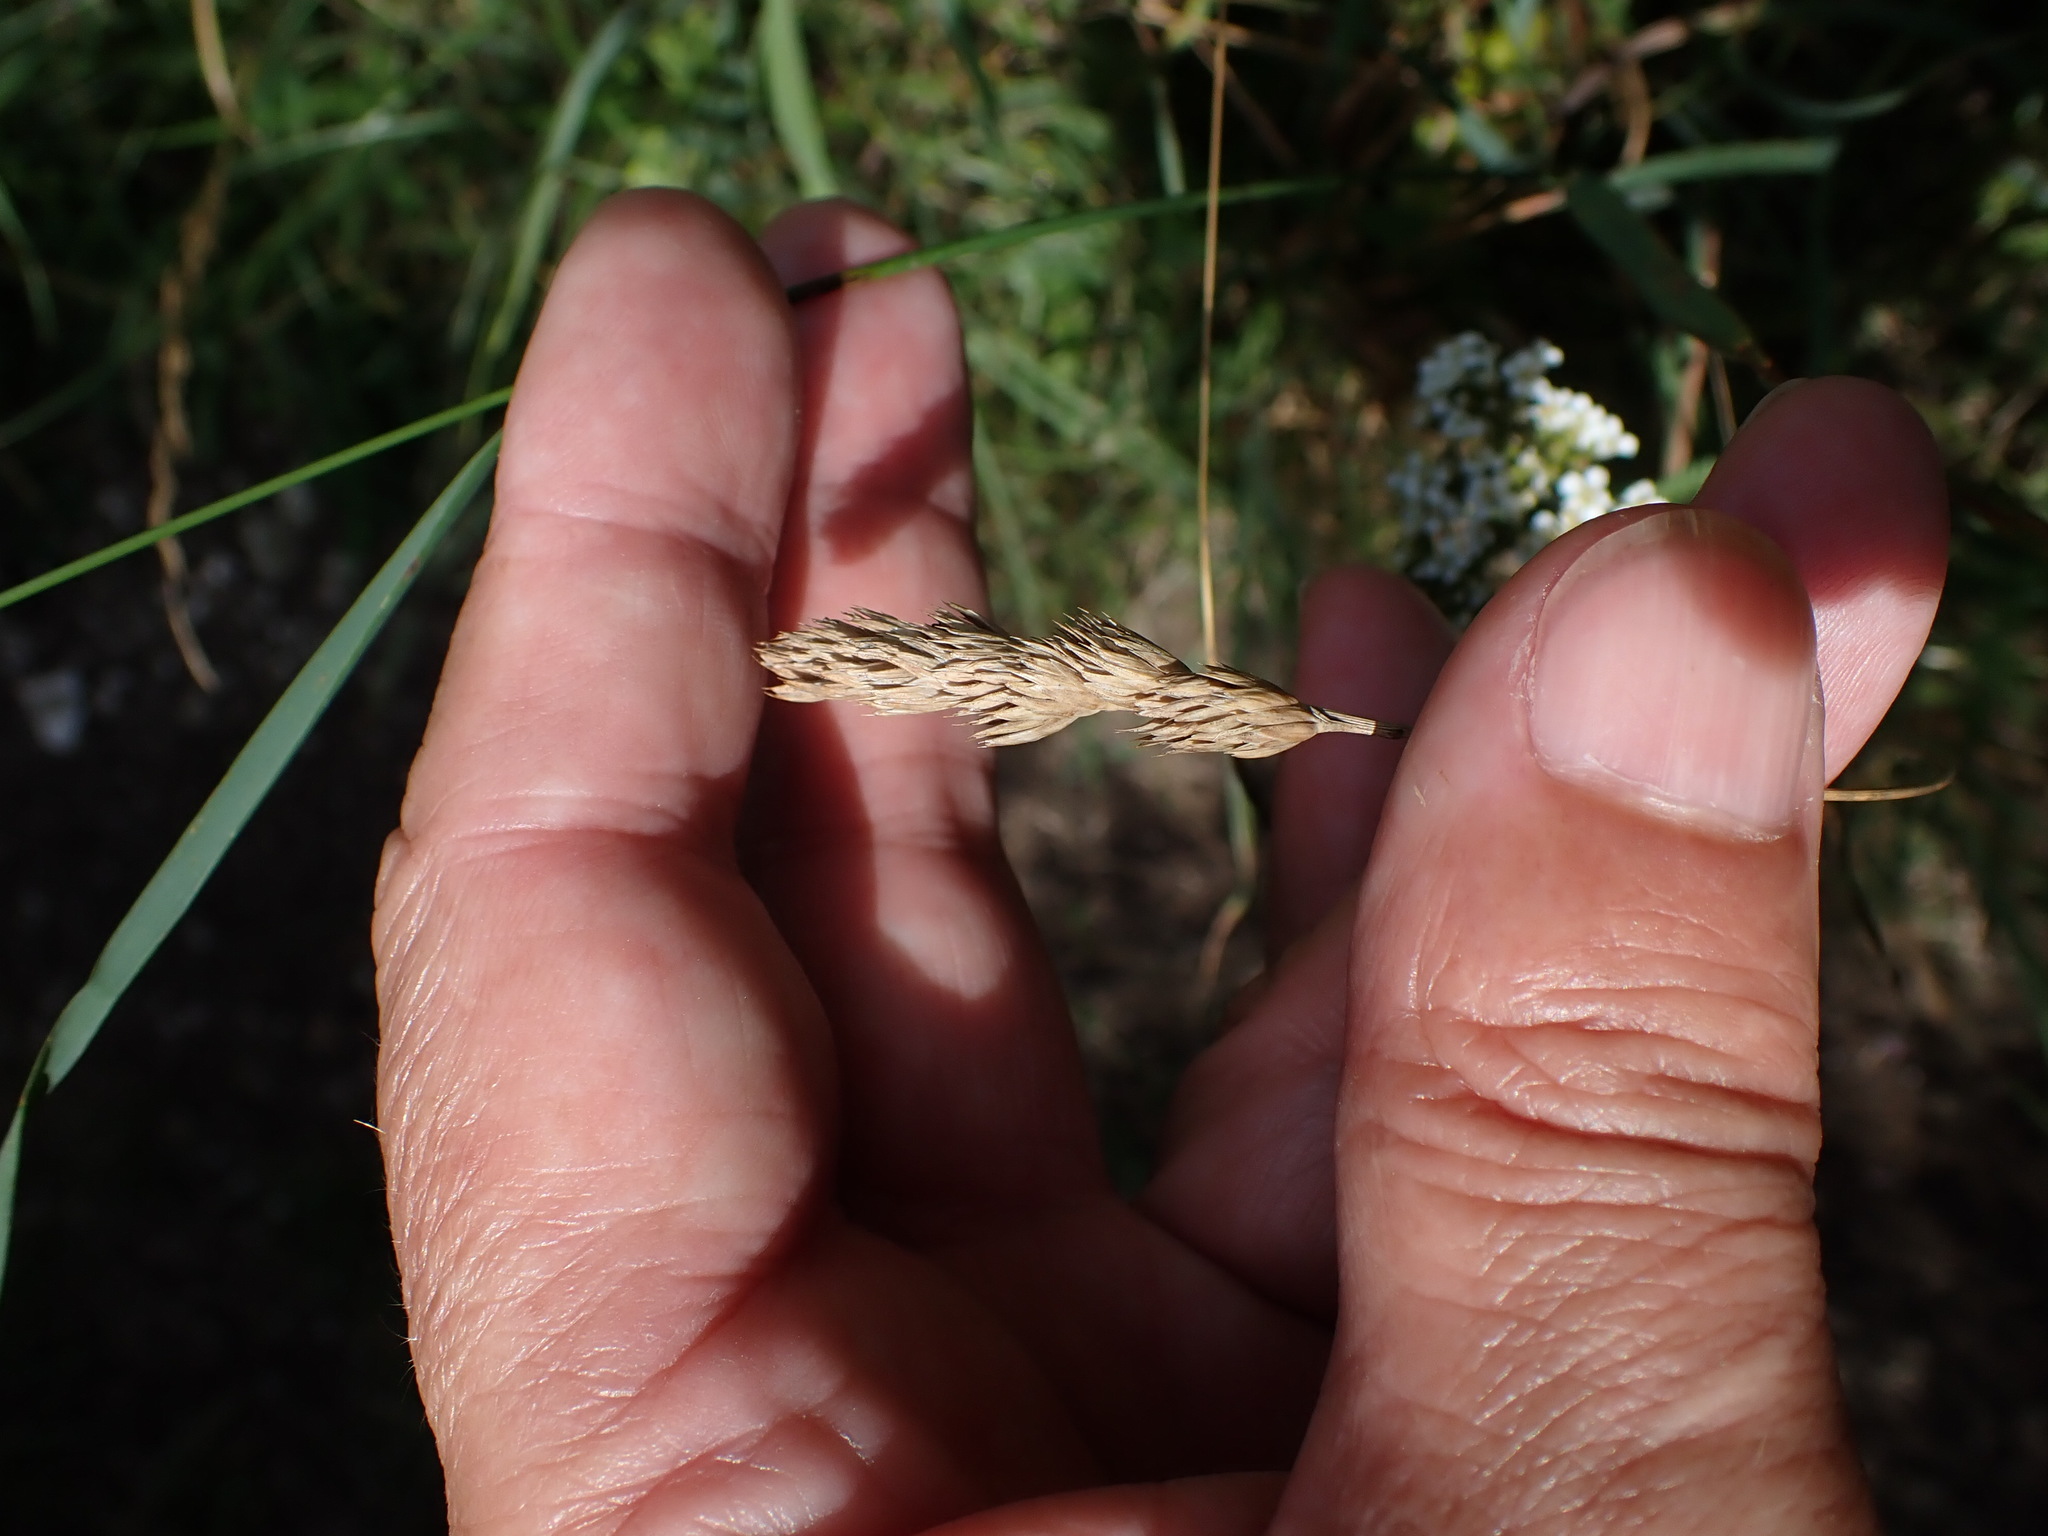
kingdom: Plantae
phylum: Tracheophyta
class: Liliopsida
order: Poales
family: Poaceae
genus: Dactylis
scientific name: Dactylis glomerata
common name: Orchardgrass
